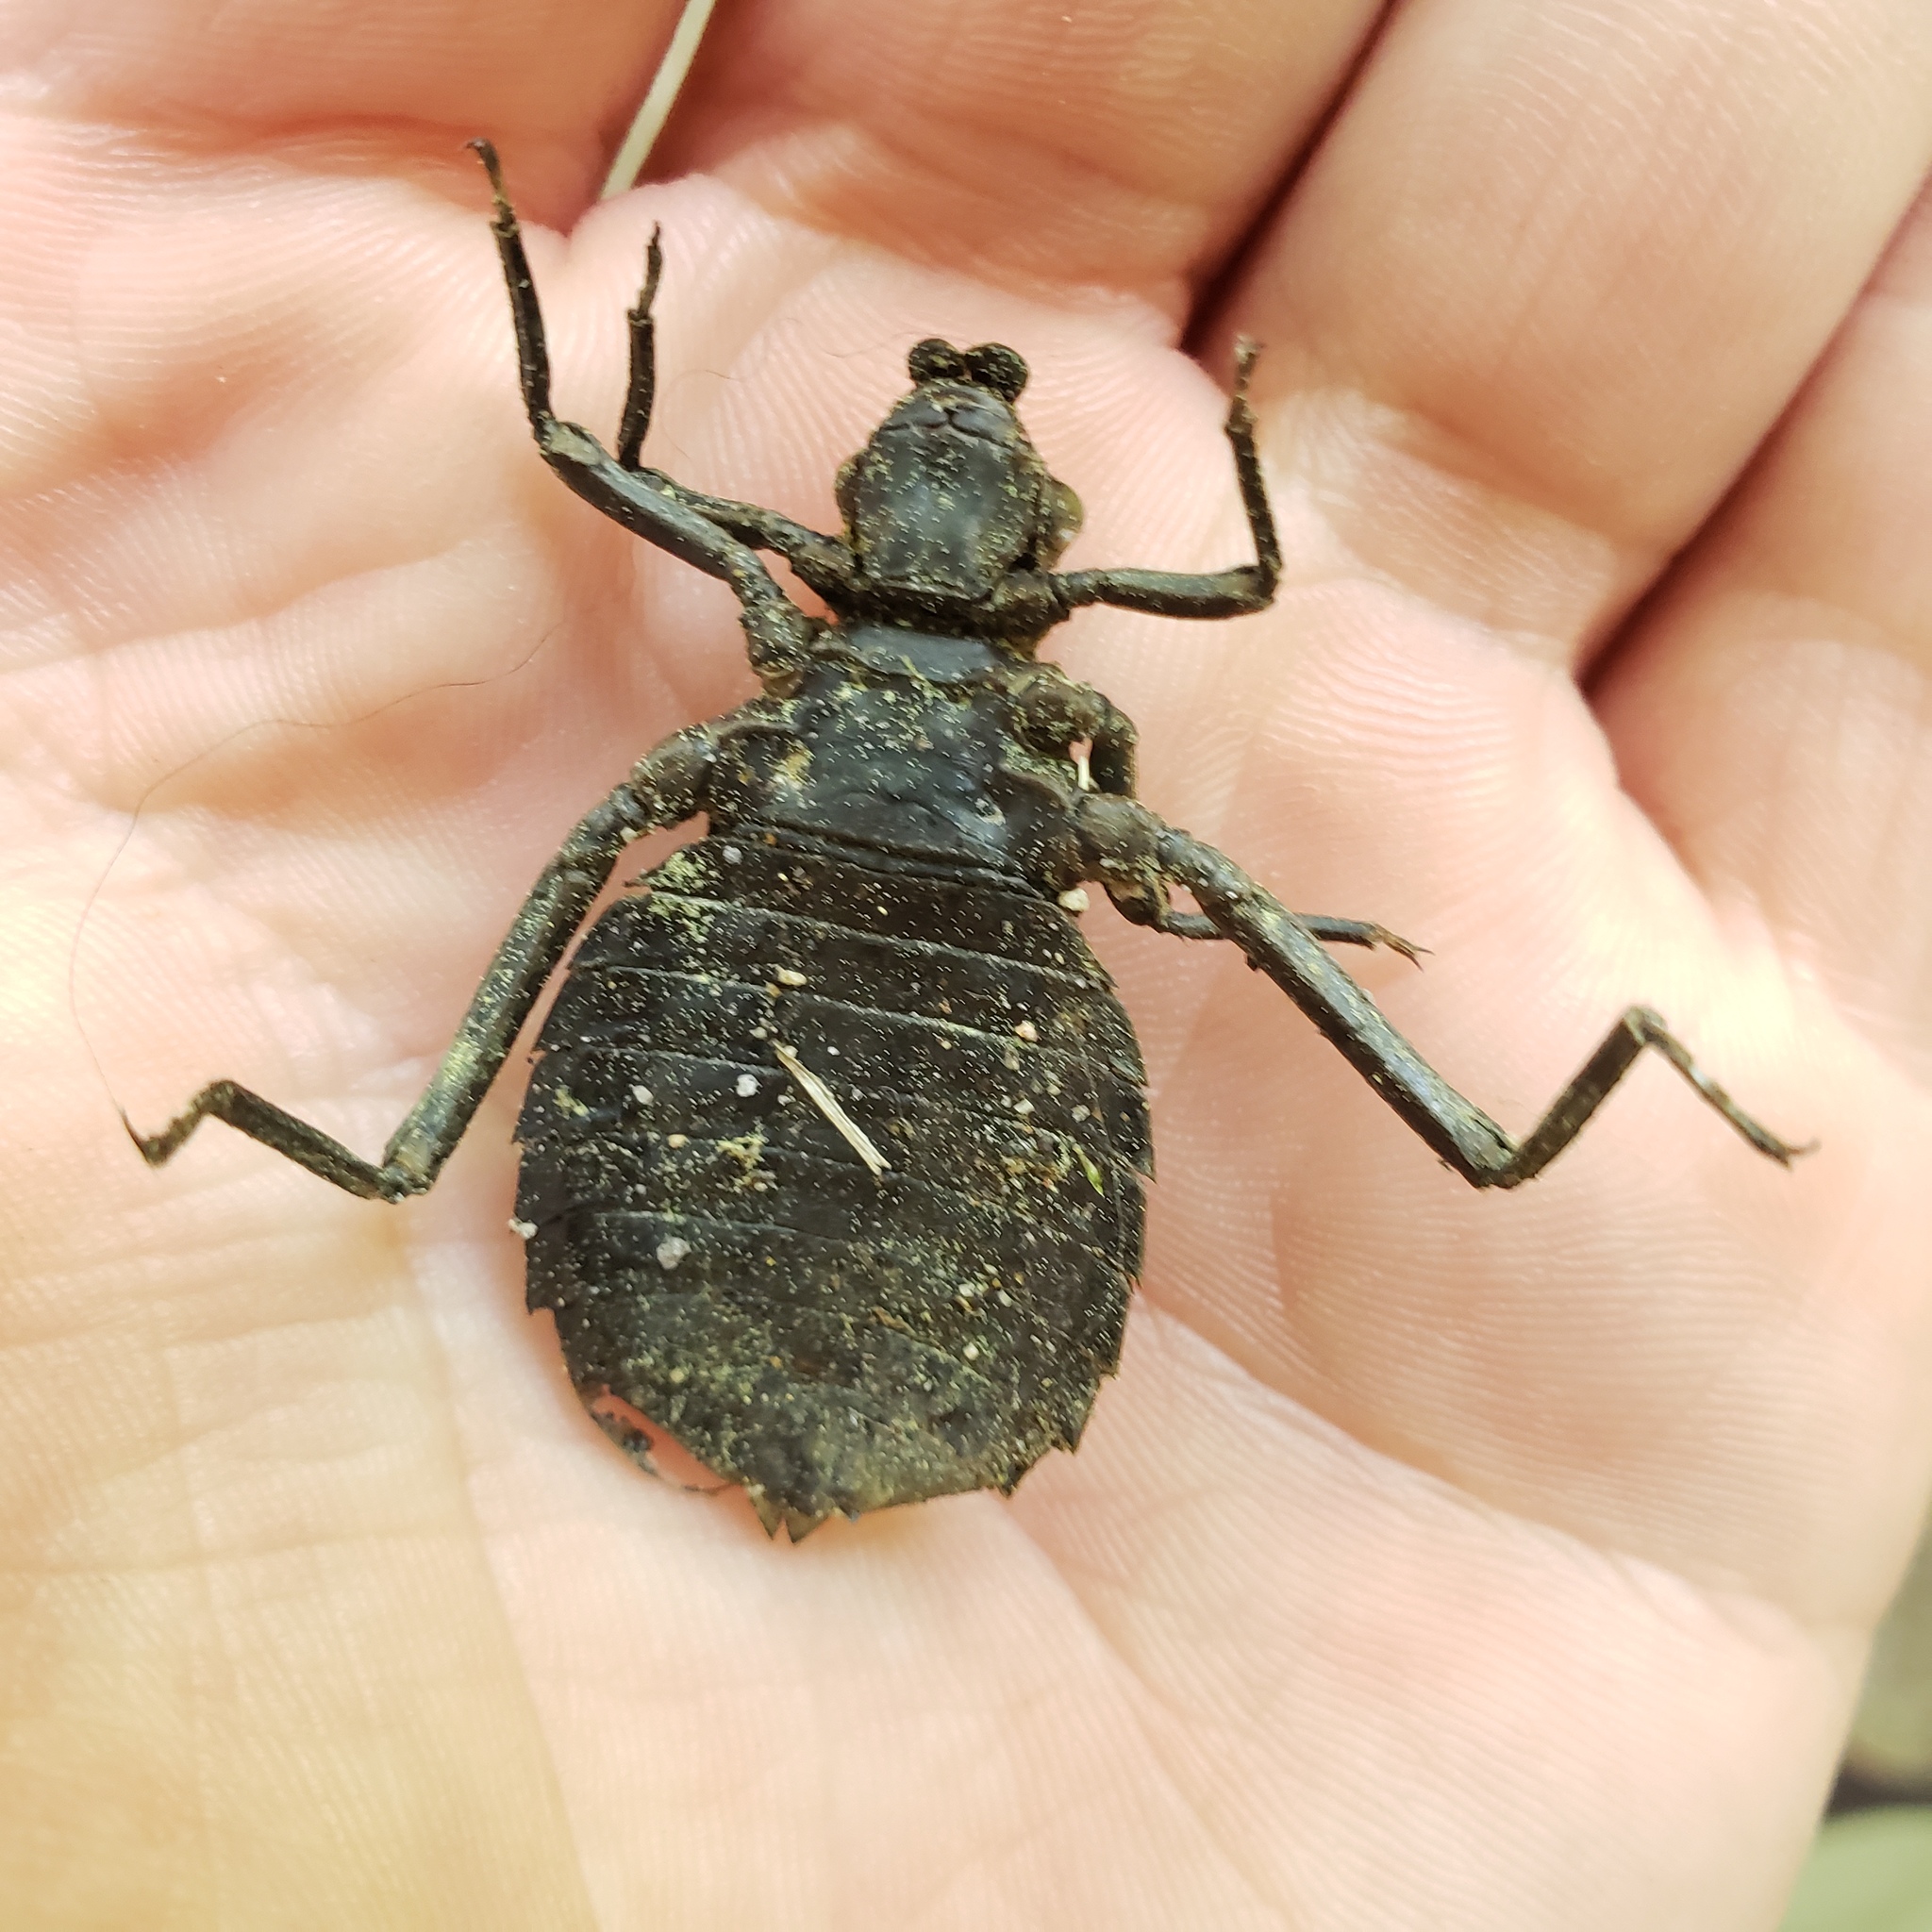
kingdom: Animalia
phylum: Arthropoda
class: Insecta
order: Odonata
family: Gomphidae
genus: Hagenius
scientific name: Hagenius brevistylus
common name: Dragonhunter
